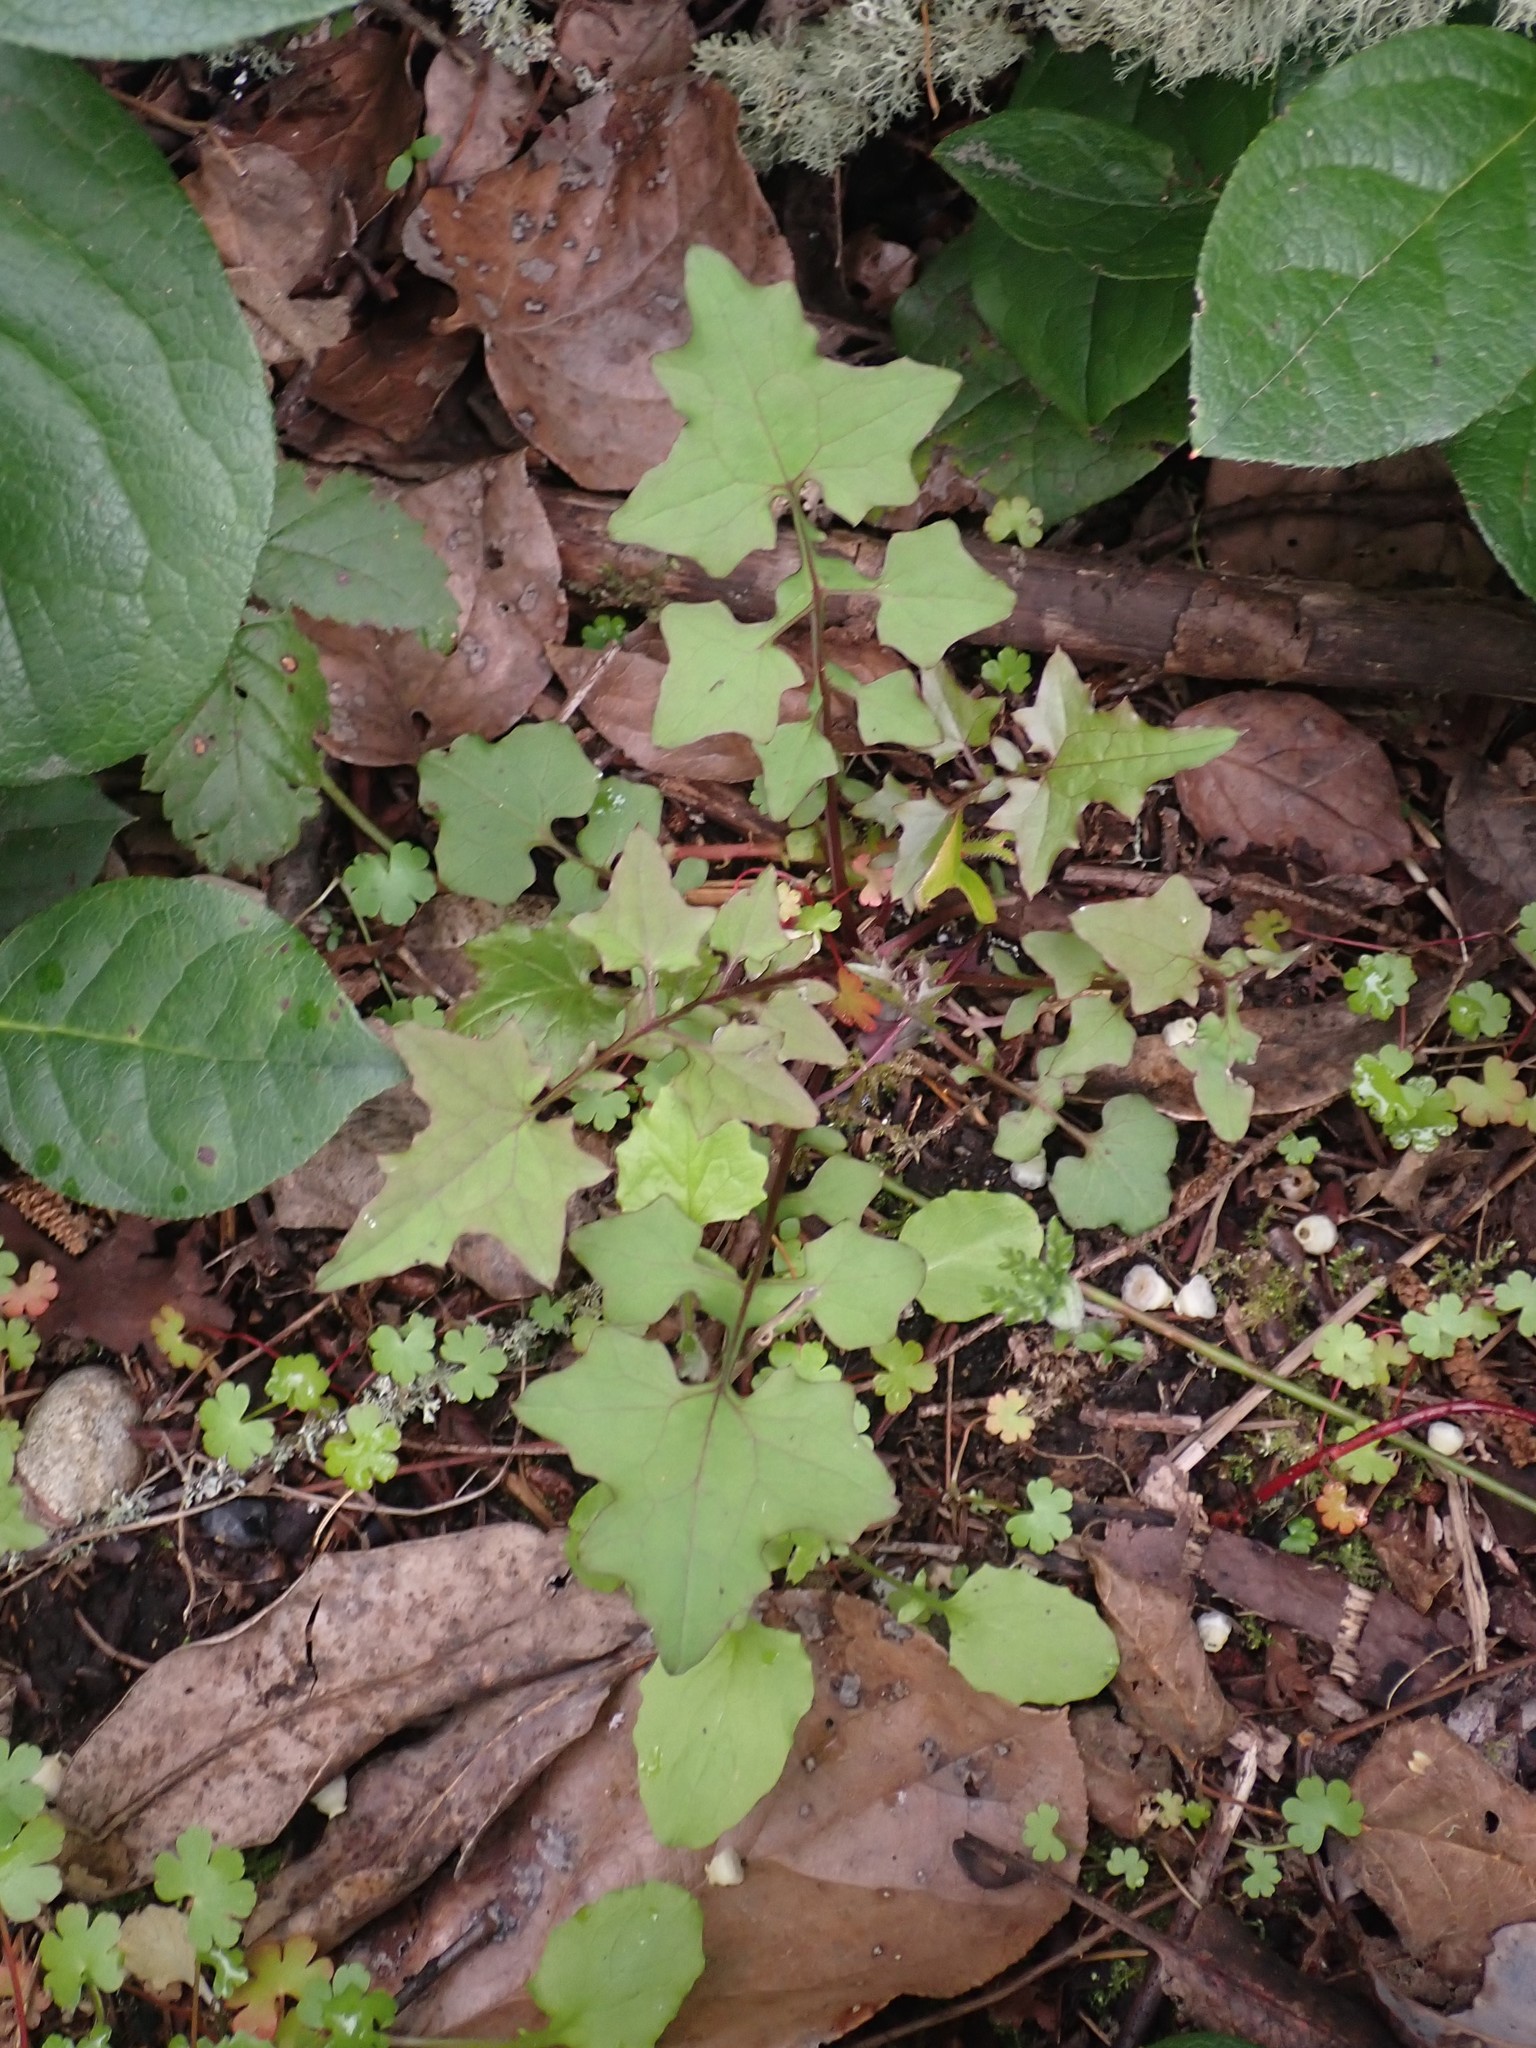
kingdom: Plantae
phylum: Tracheophyta
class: Magnoliopsida
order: Asterales
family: Asteraceae
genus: Mycelis
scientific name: Mycelis muralis
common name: Wall lettuce
